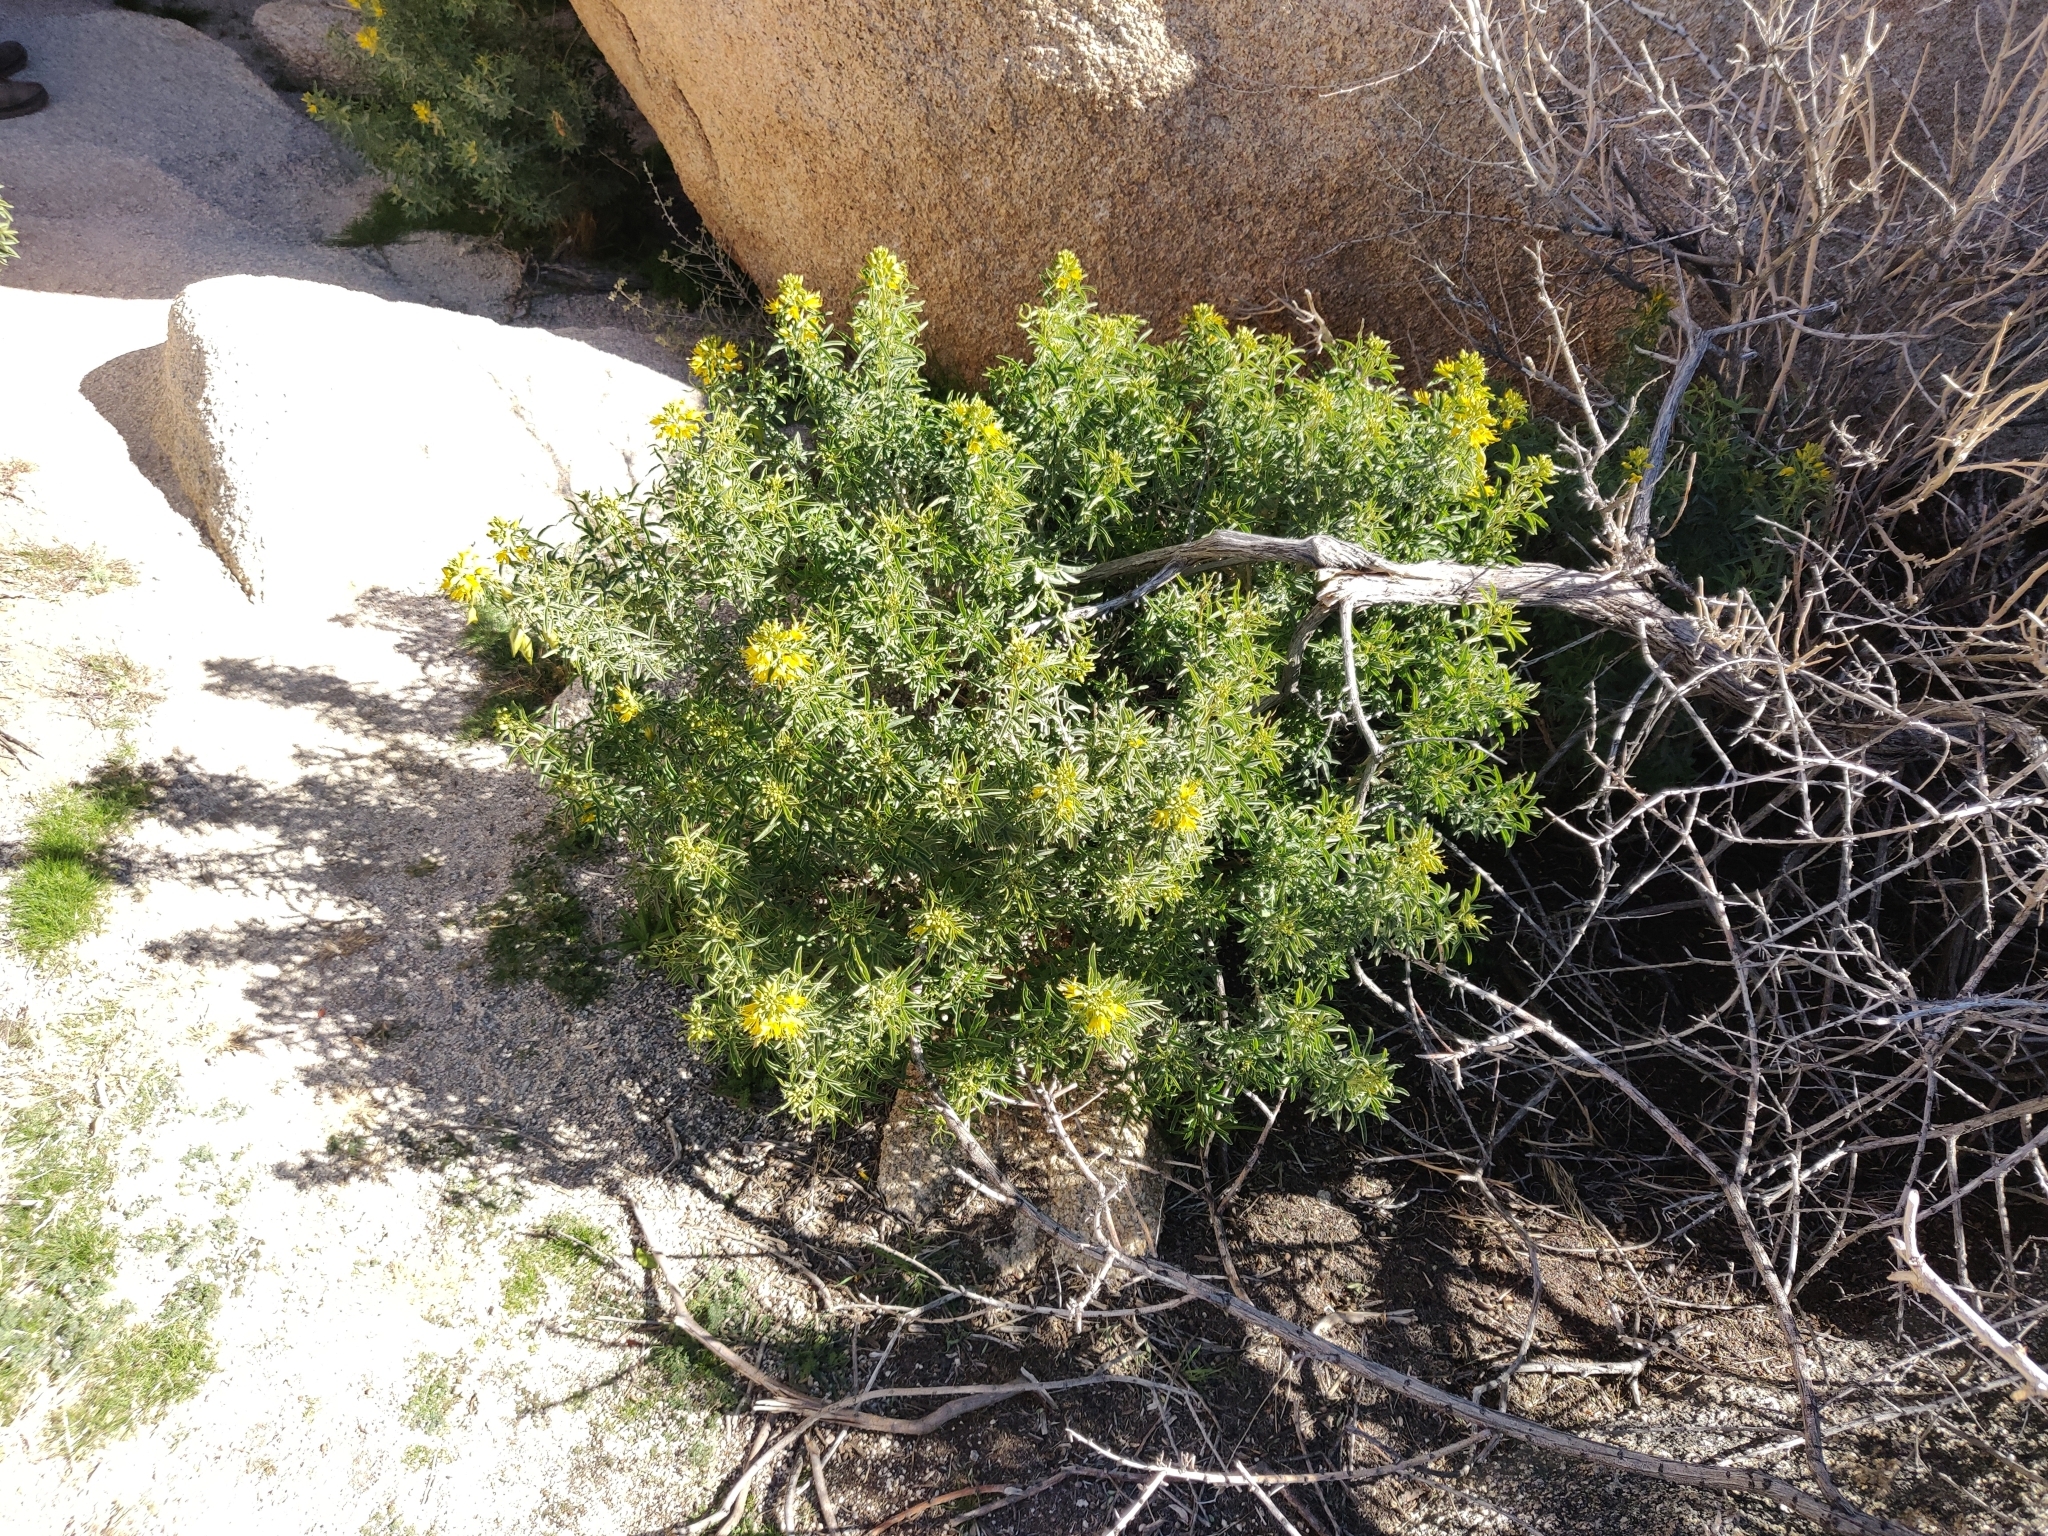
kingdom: Plantae
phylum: Tracheophyta
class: Magnoliopsida
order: Brassicales
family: Cleomaceae
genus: Cleomella
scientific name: Cleomella arborea
